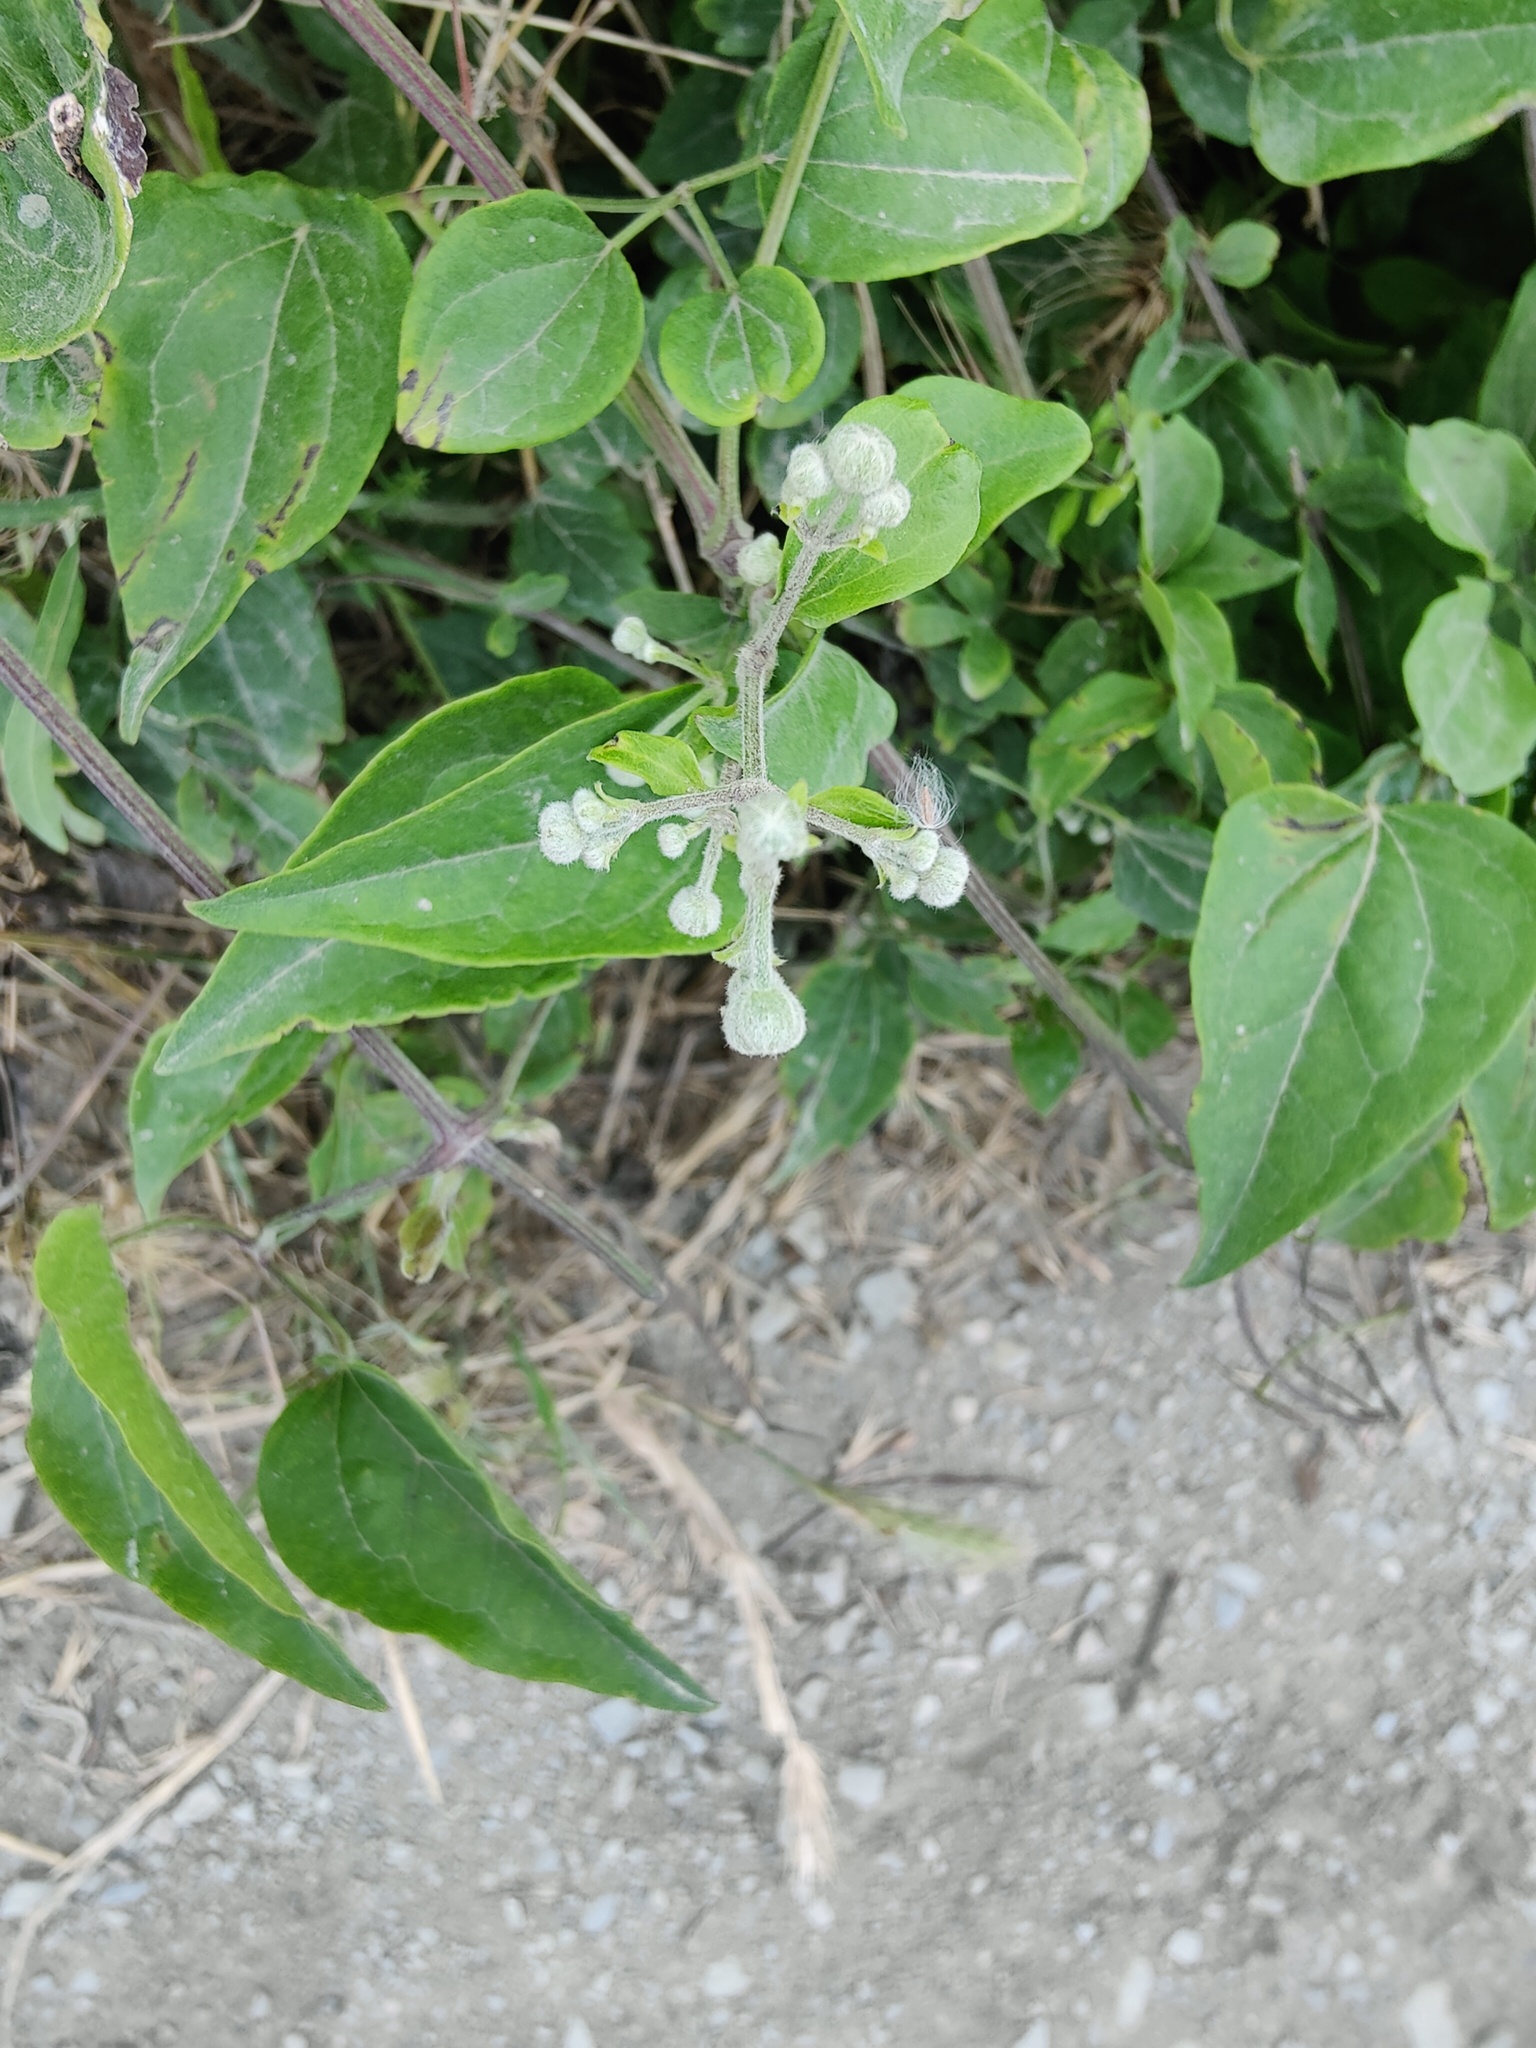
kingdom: Plantae
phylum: Tracheophyta
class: Magnoliopsida
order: Ranunculales
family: Ranunculaceae
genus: Clematis
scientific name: Clematis vitalba
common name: Evergreen clematis
